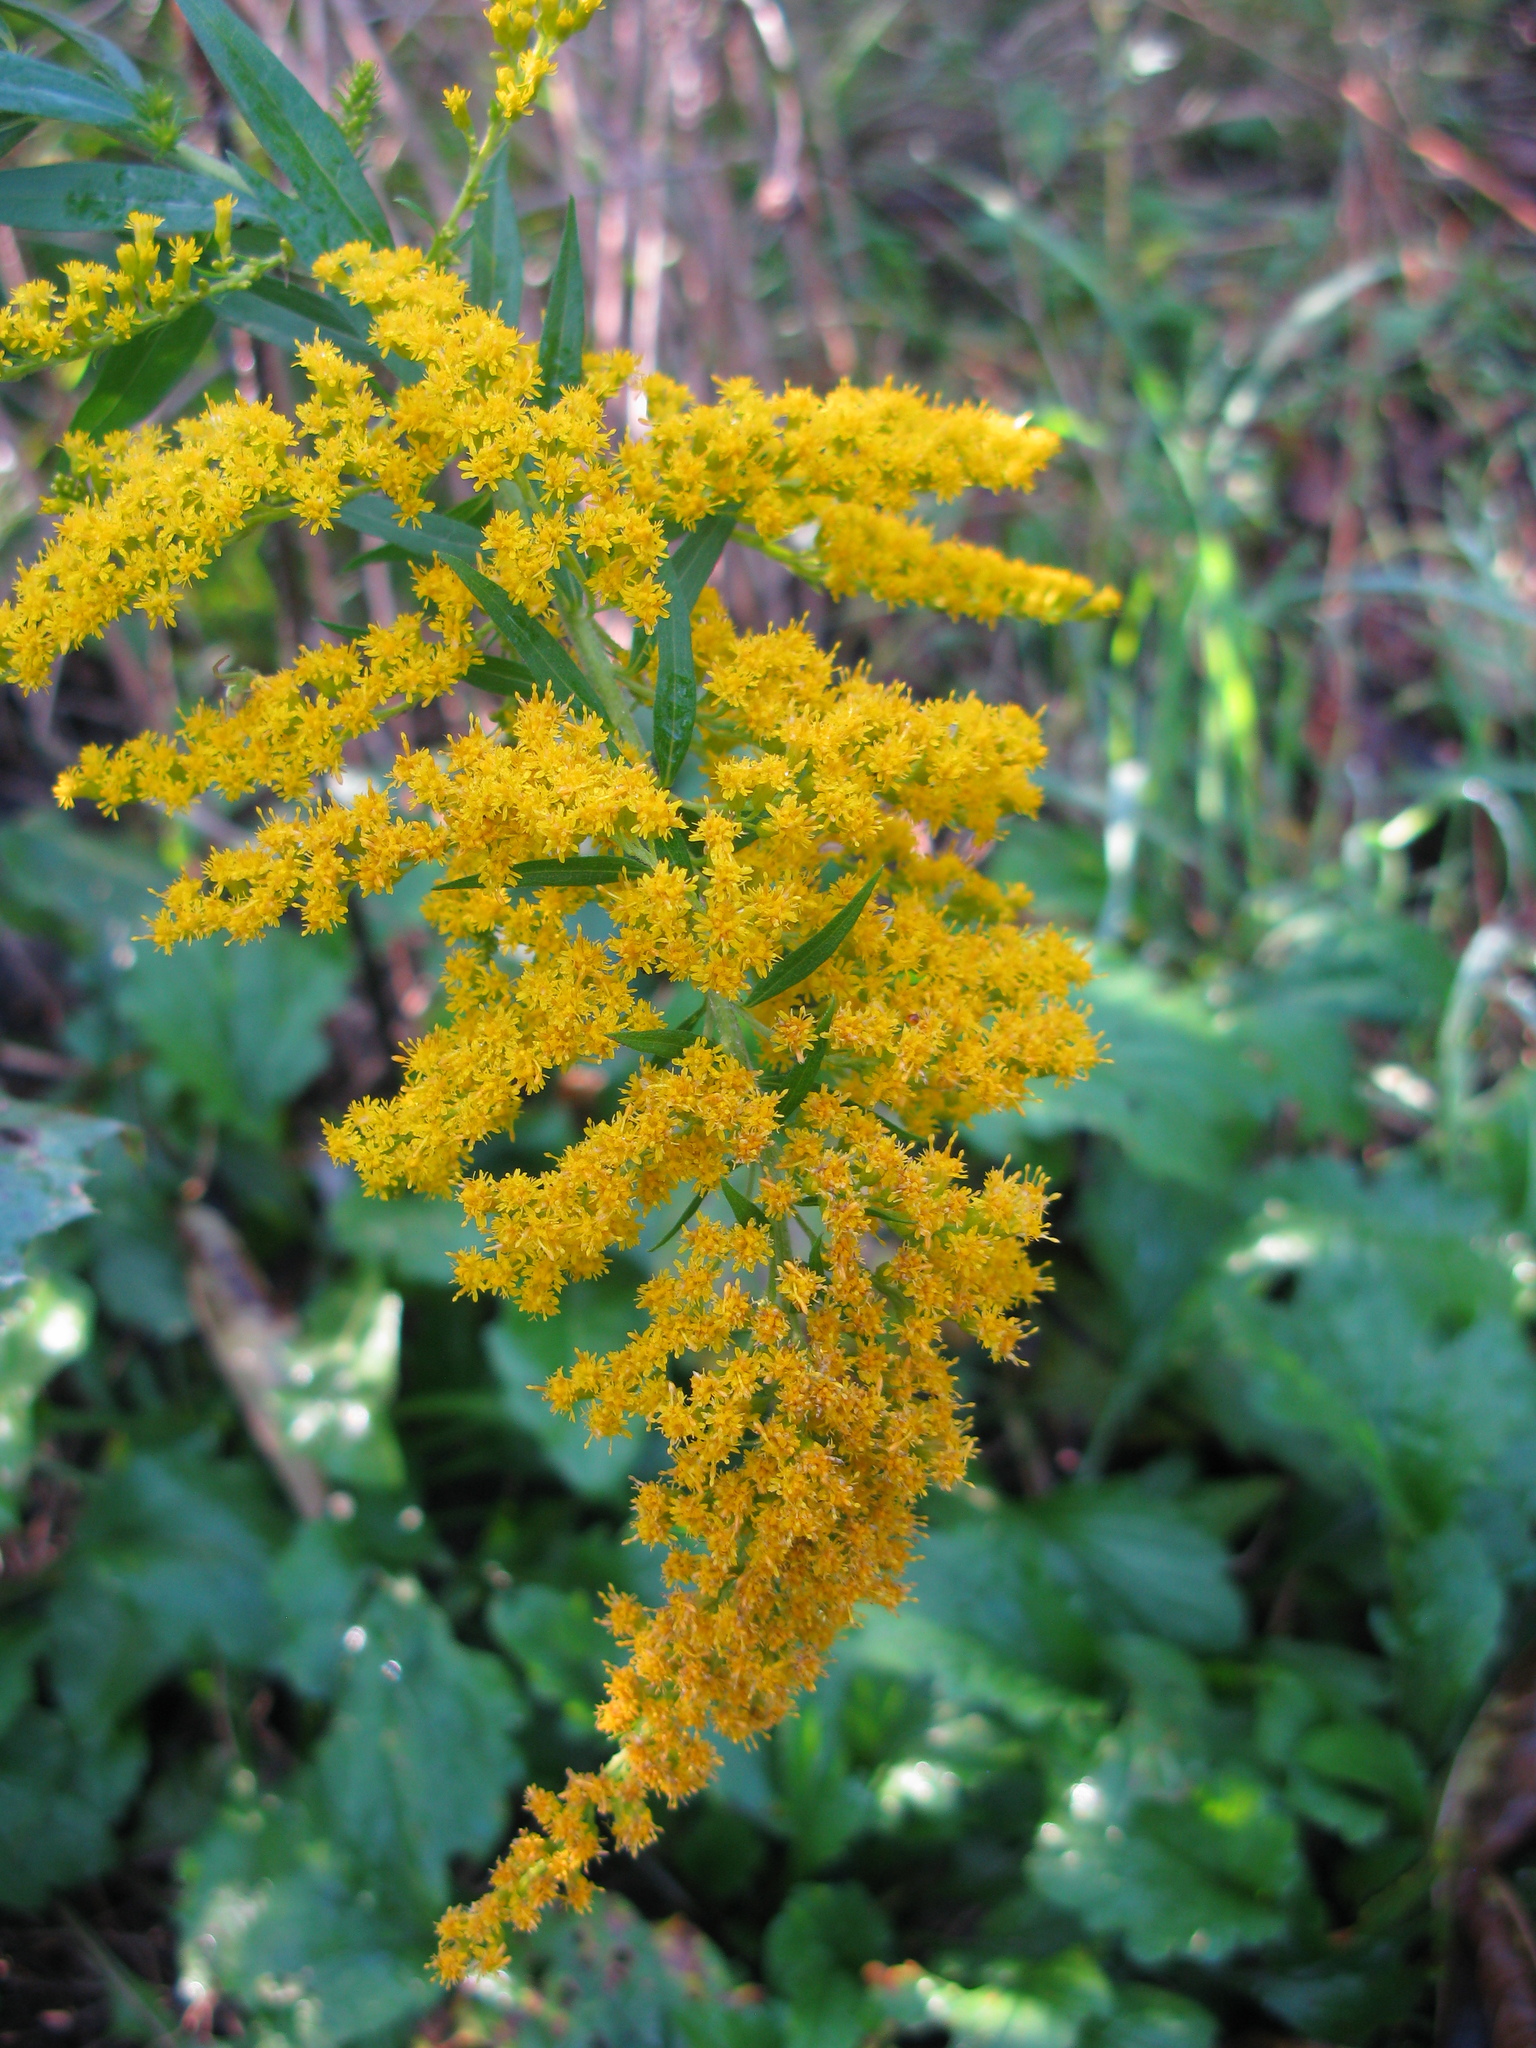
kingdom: Plantae
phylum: Tracheophyta
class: Magnoliopsida
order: Asterales
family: Asteraceae
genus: Solidago
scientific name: Solidago canadensis
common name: Canada goldenrod
